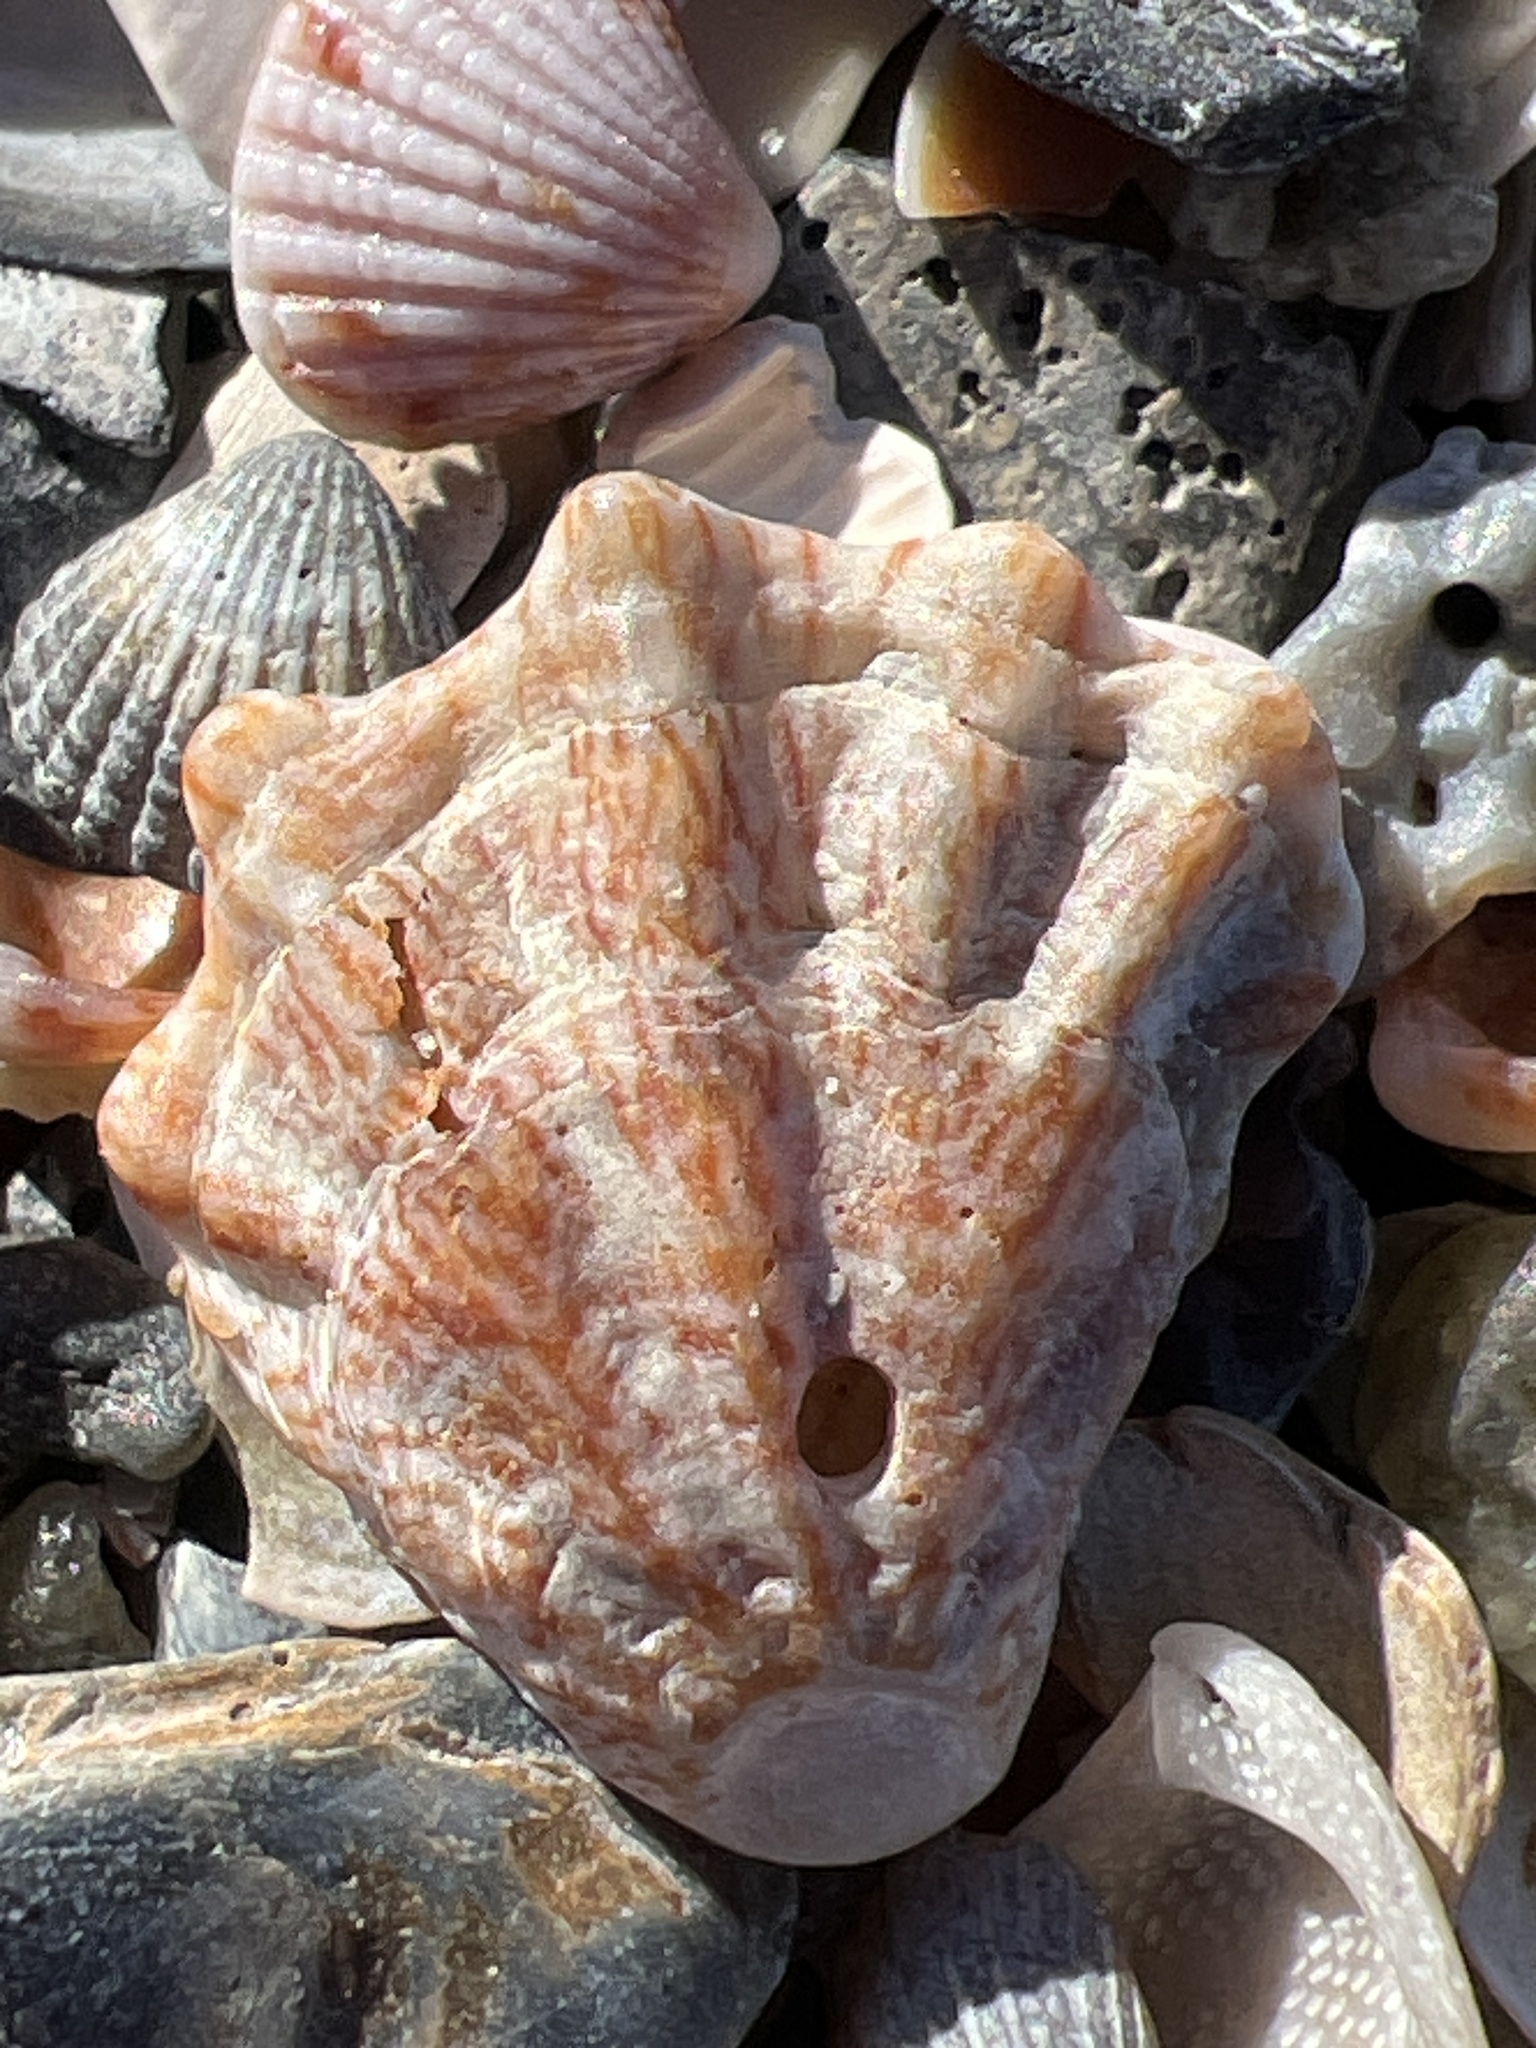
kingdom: Animalia
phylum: Mollusca
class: Bivalvia
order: Pectinida
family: Plicatulidae
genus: Plicatula
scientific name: Plicatula gibbosa
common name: Atlantic kitten's paw
